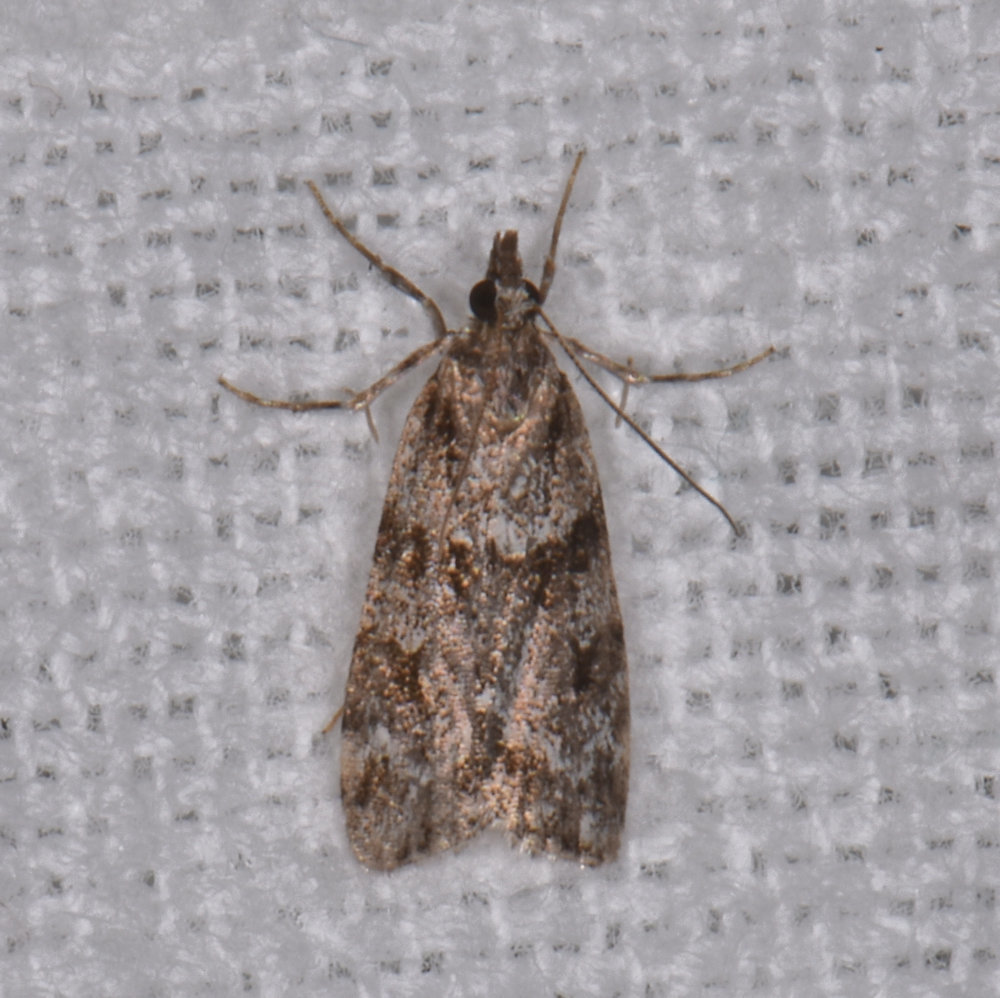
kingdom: Animalia
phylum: Arthropoda
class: Insecta
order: Lepidoptera
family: Crambidae
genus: Scoparia
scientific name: Scoparia biplagialis
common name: Double-striped scoparia moth
